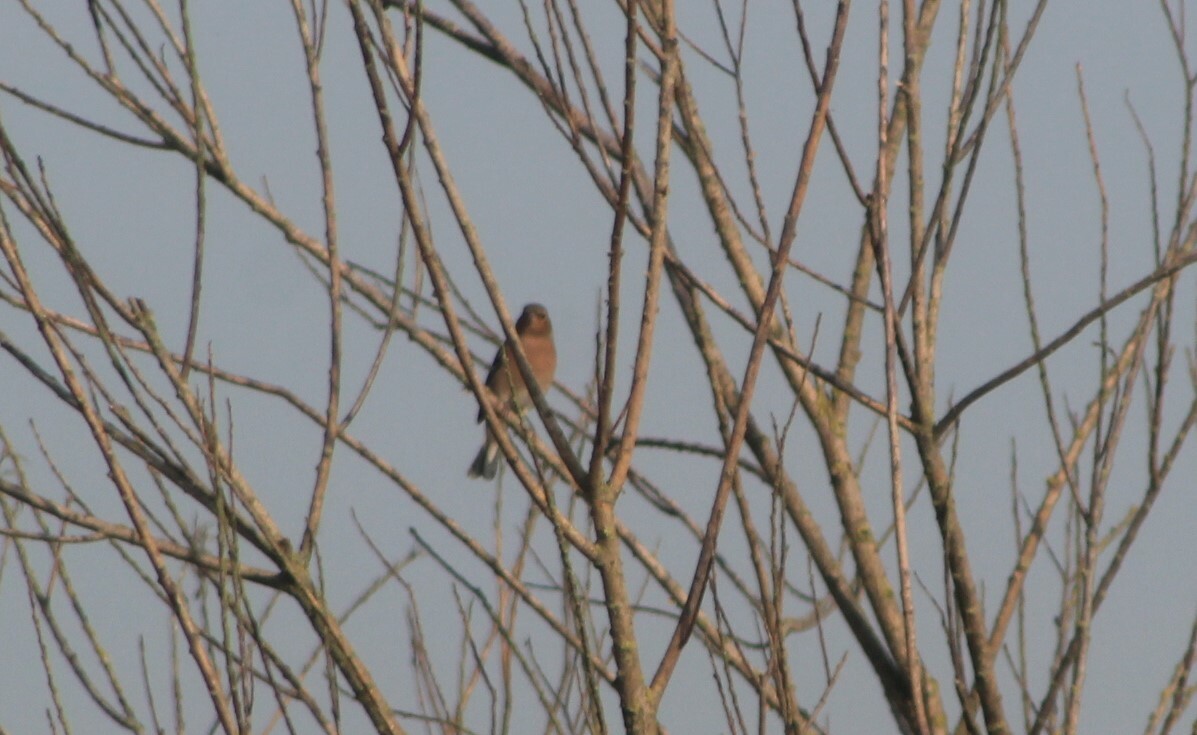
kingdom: Animalia
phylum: Chordata
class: Aves
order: Passeriformes
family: Fringillidae
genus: Fringilla
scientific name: Fringilla coelebs
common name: Common chaffinch
